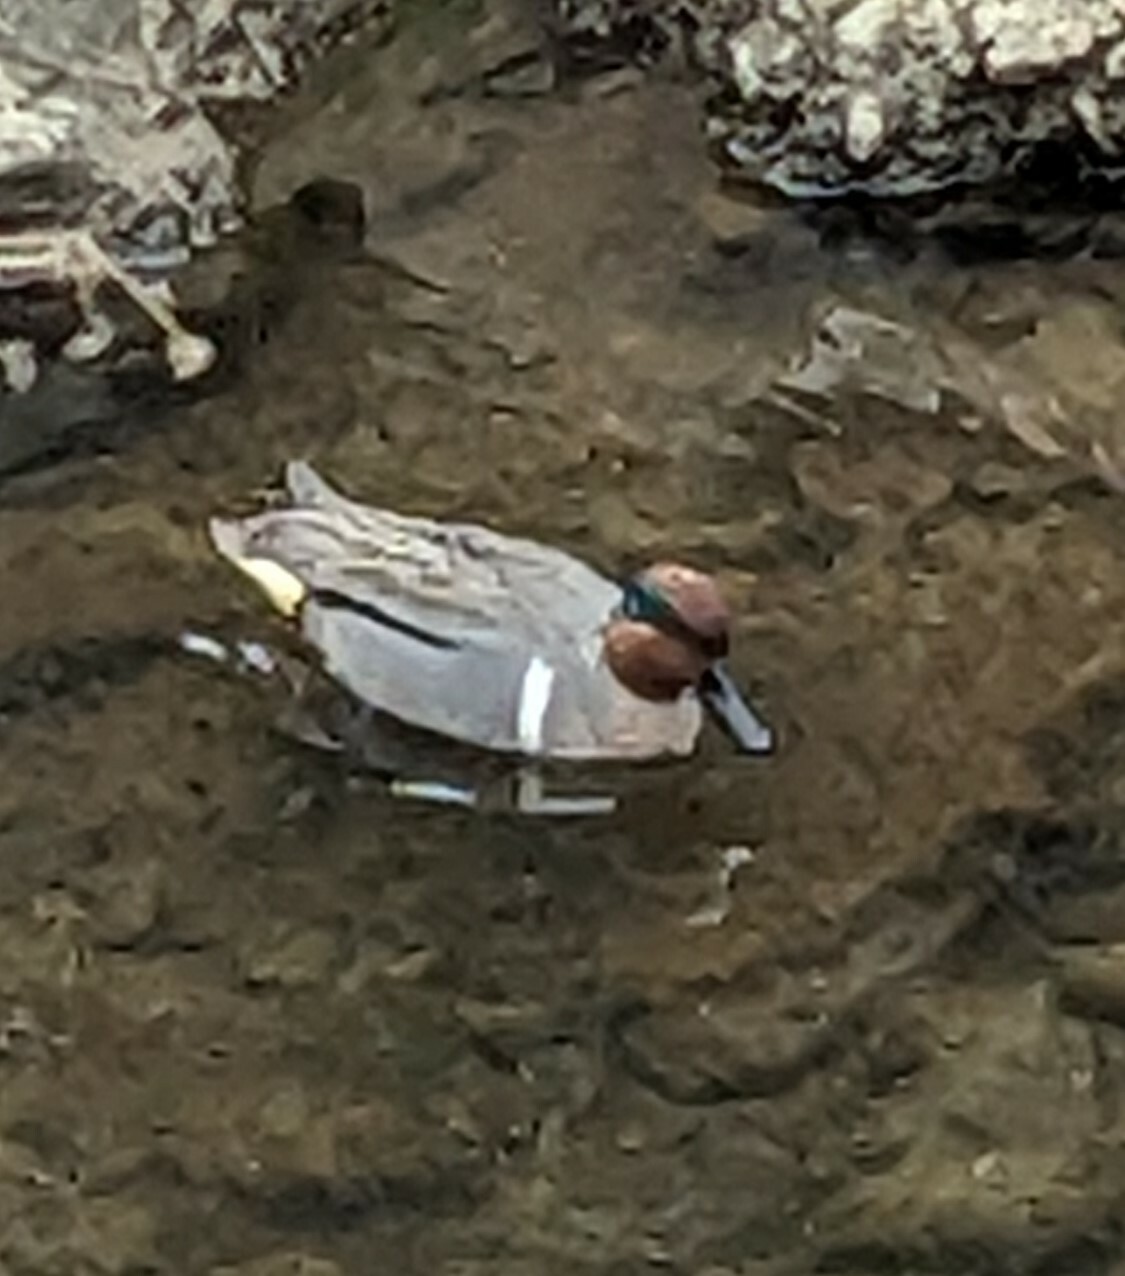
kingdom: Animalia
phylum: Chordata
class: Aves
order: Anseriformes
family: Anatidae
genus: Anas
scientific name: Anas crecca
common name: Eurasian teal
